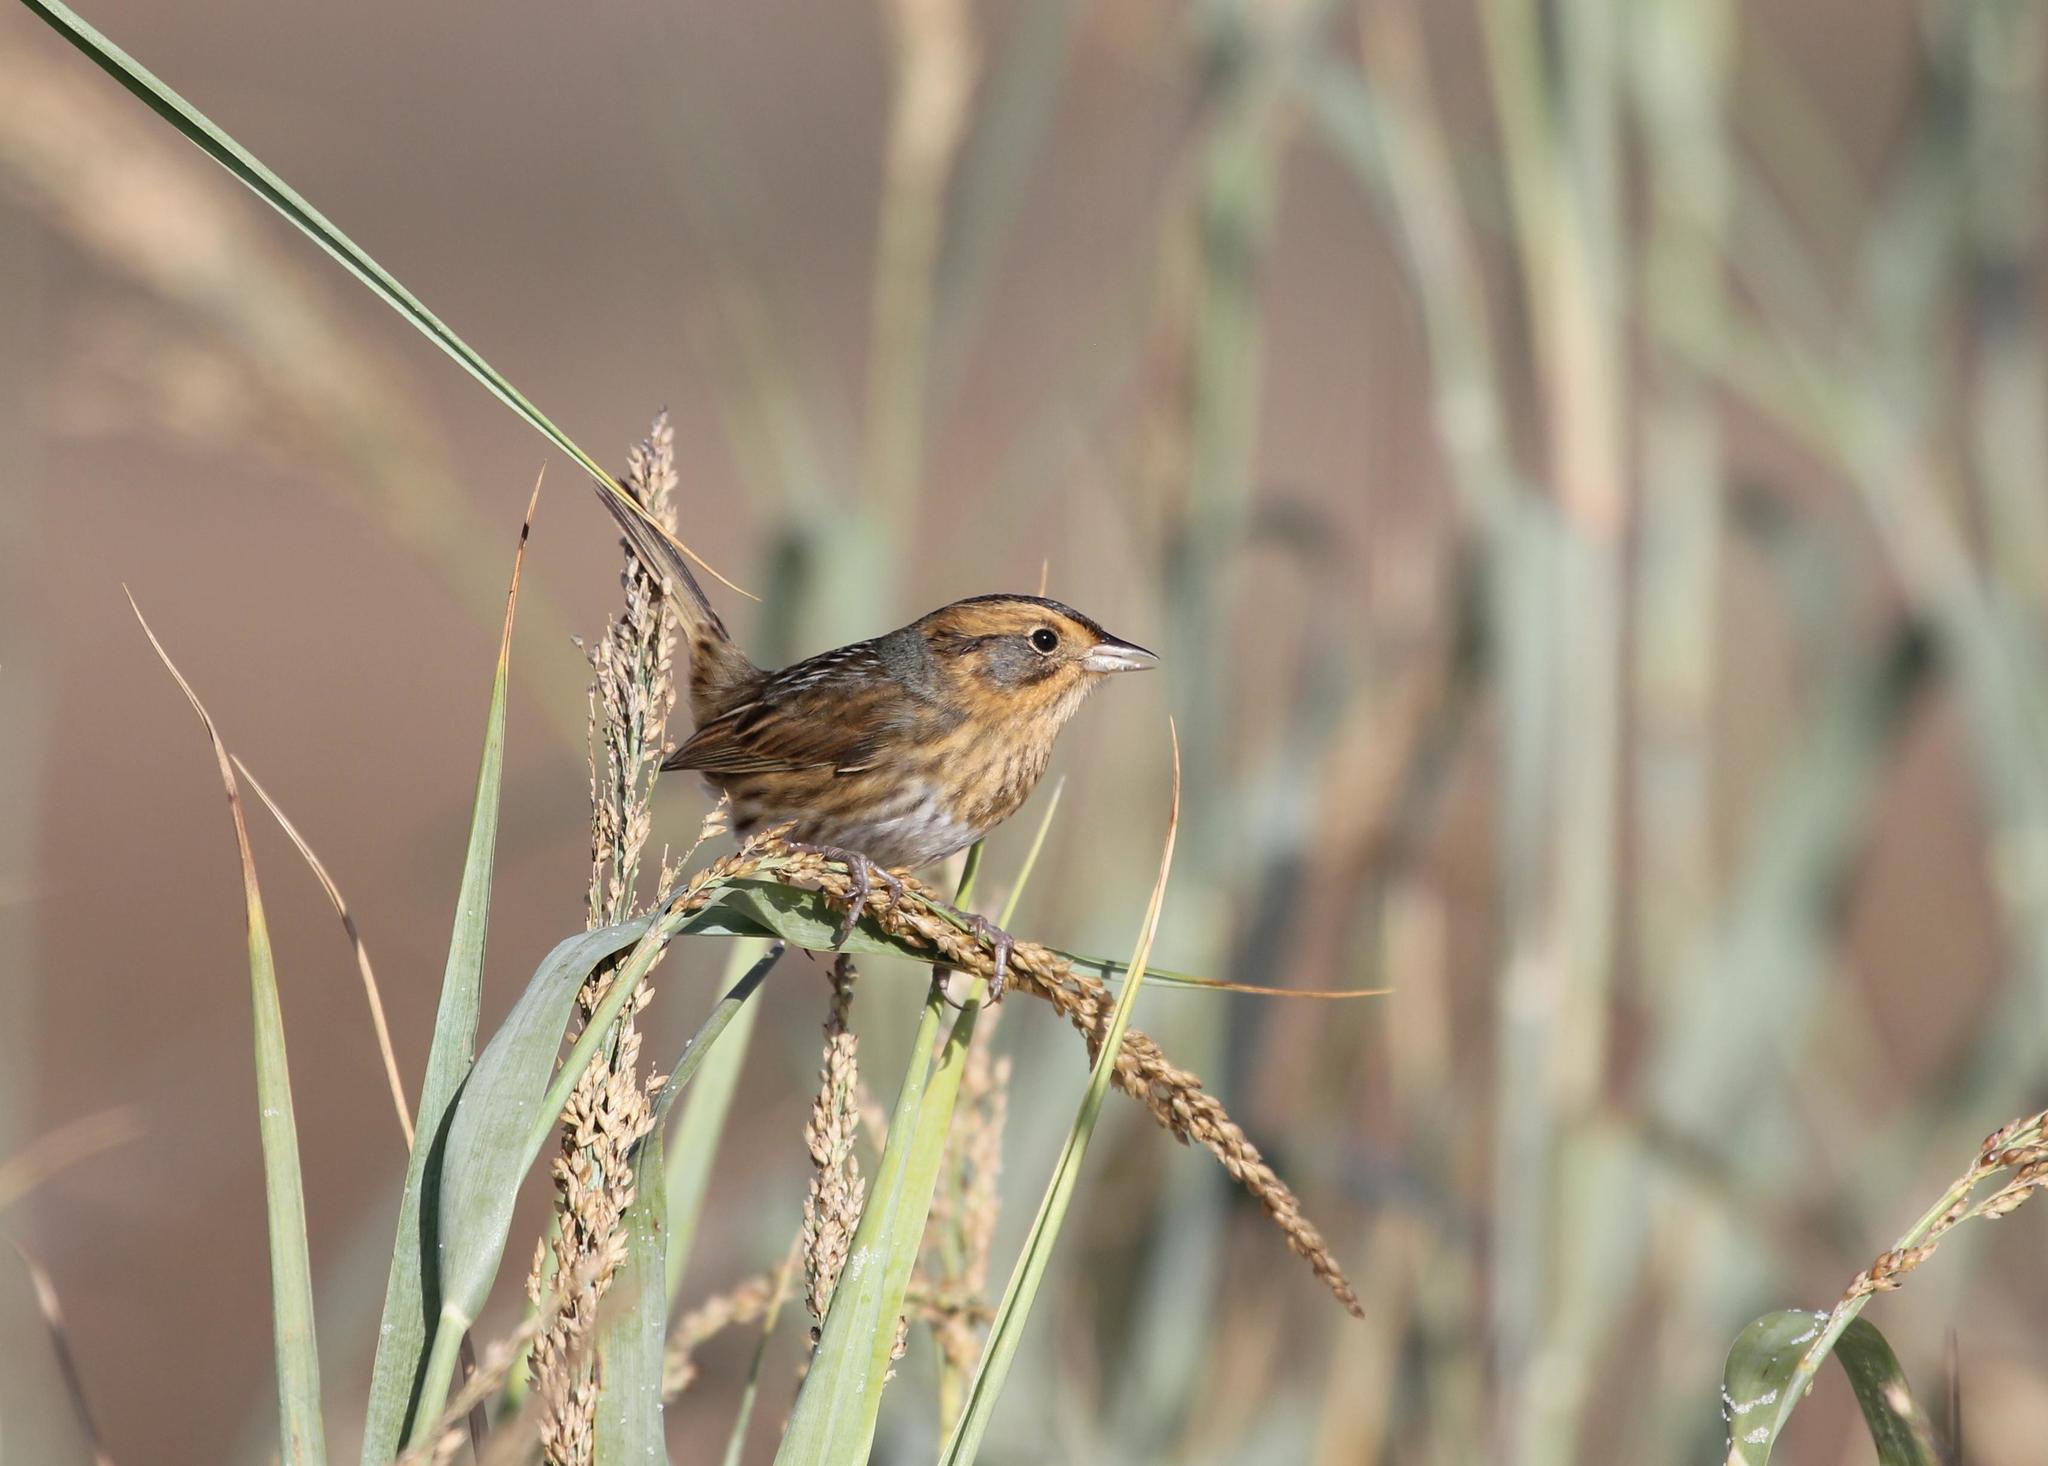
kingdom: Animalia
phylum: Chordata
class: Aves
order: Passeriformes
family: Passerellidae
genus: Ammospiza
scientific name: Ammospiza nelsoni
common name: Nelson's sparrow
